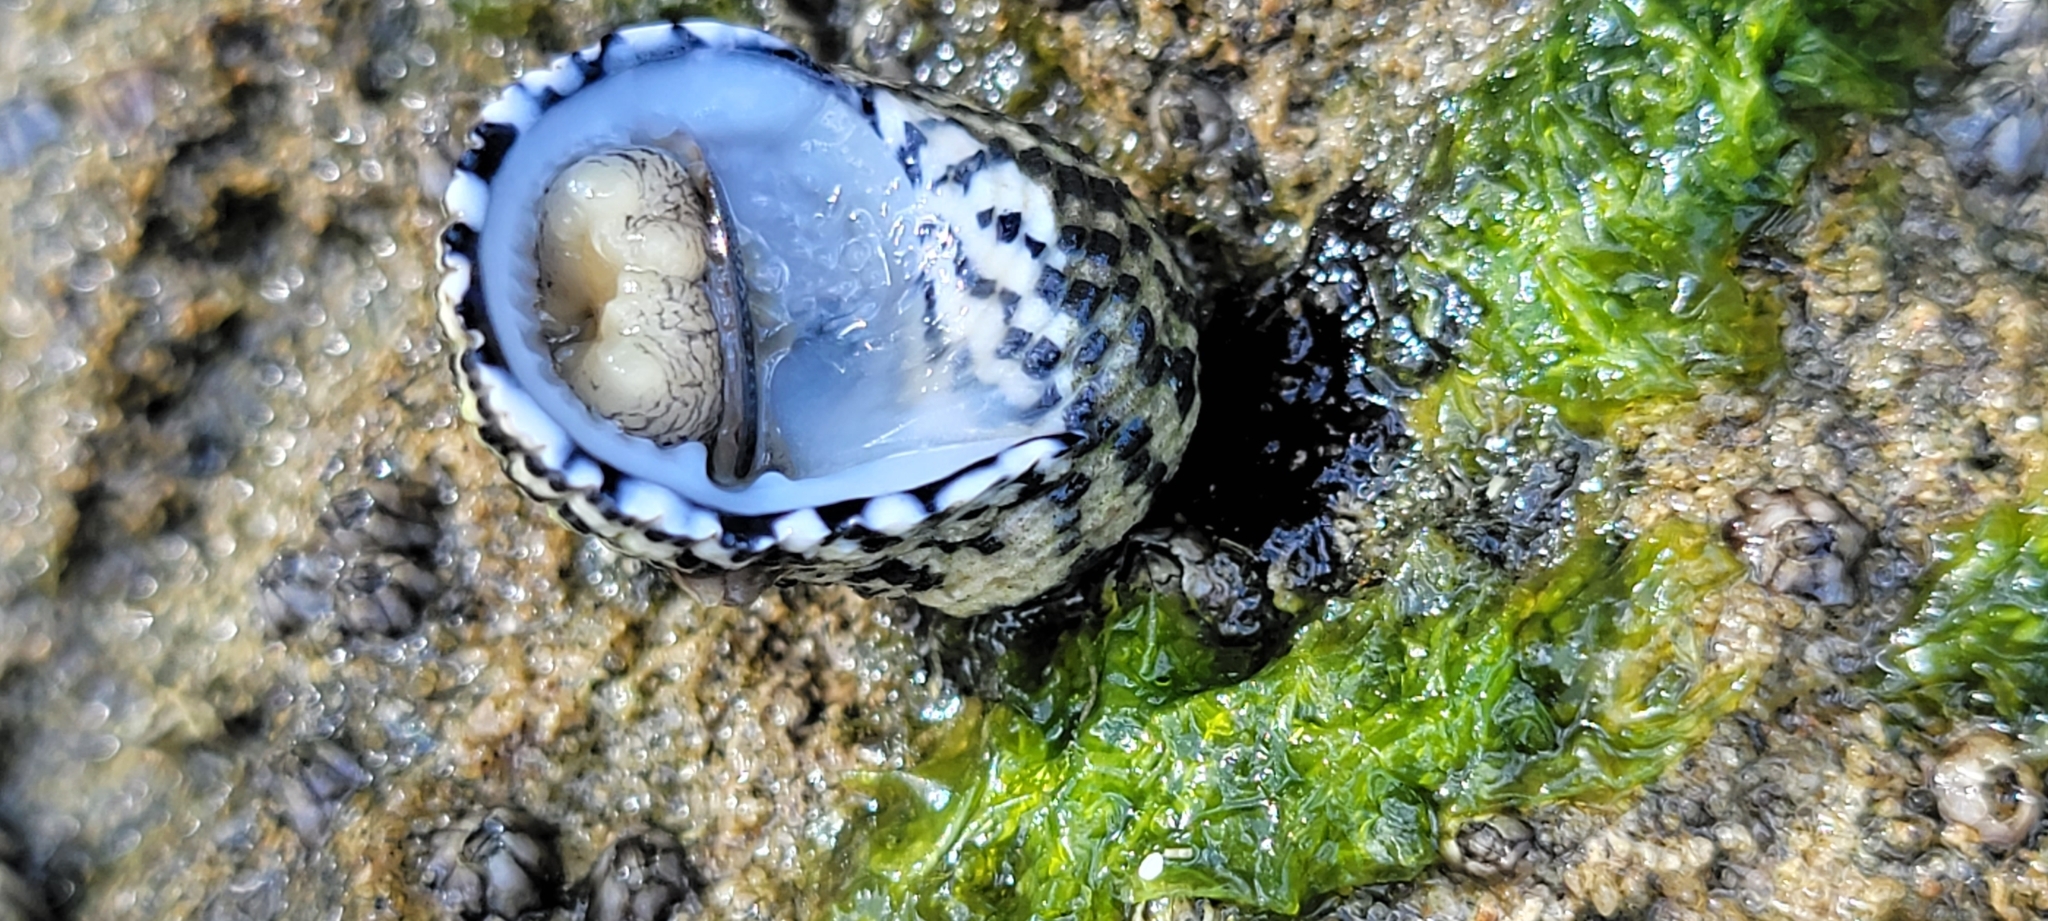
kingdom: Animalia
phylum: Mollusca
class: Gastropoda
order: Cycloneritida
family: Neritidae
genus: Nerita
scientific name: Nerita tessellata
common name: Checkered nerite
